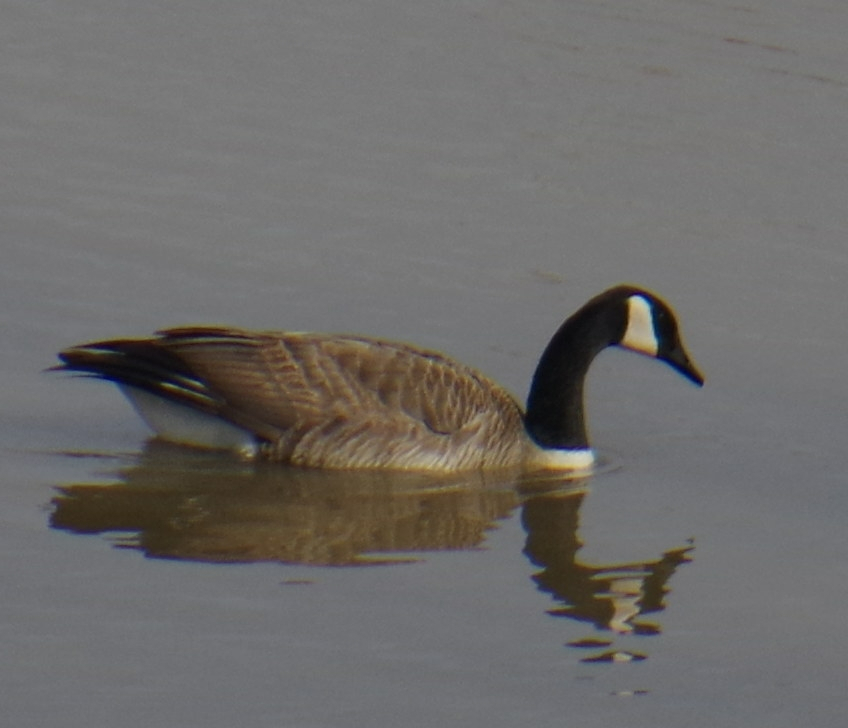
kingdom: Animalia
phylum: Chordata
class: Aves
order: Anseriformes
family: Anatidae
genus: Branta
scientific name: Branta canadensis
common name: Canada goose
